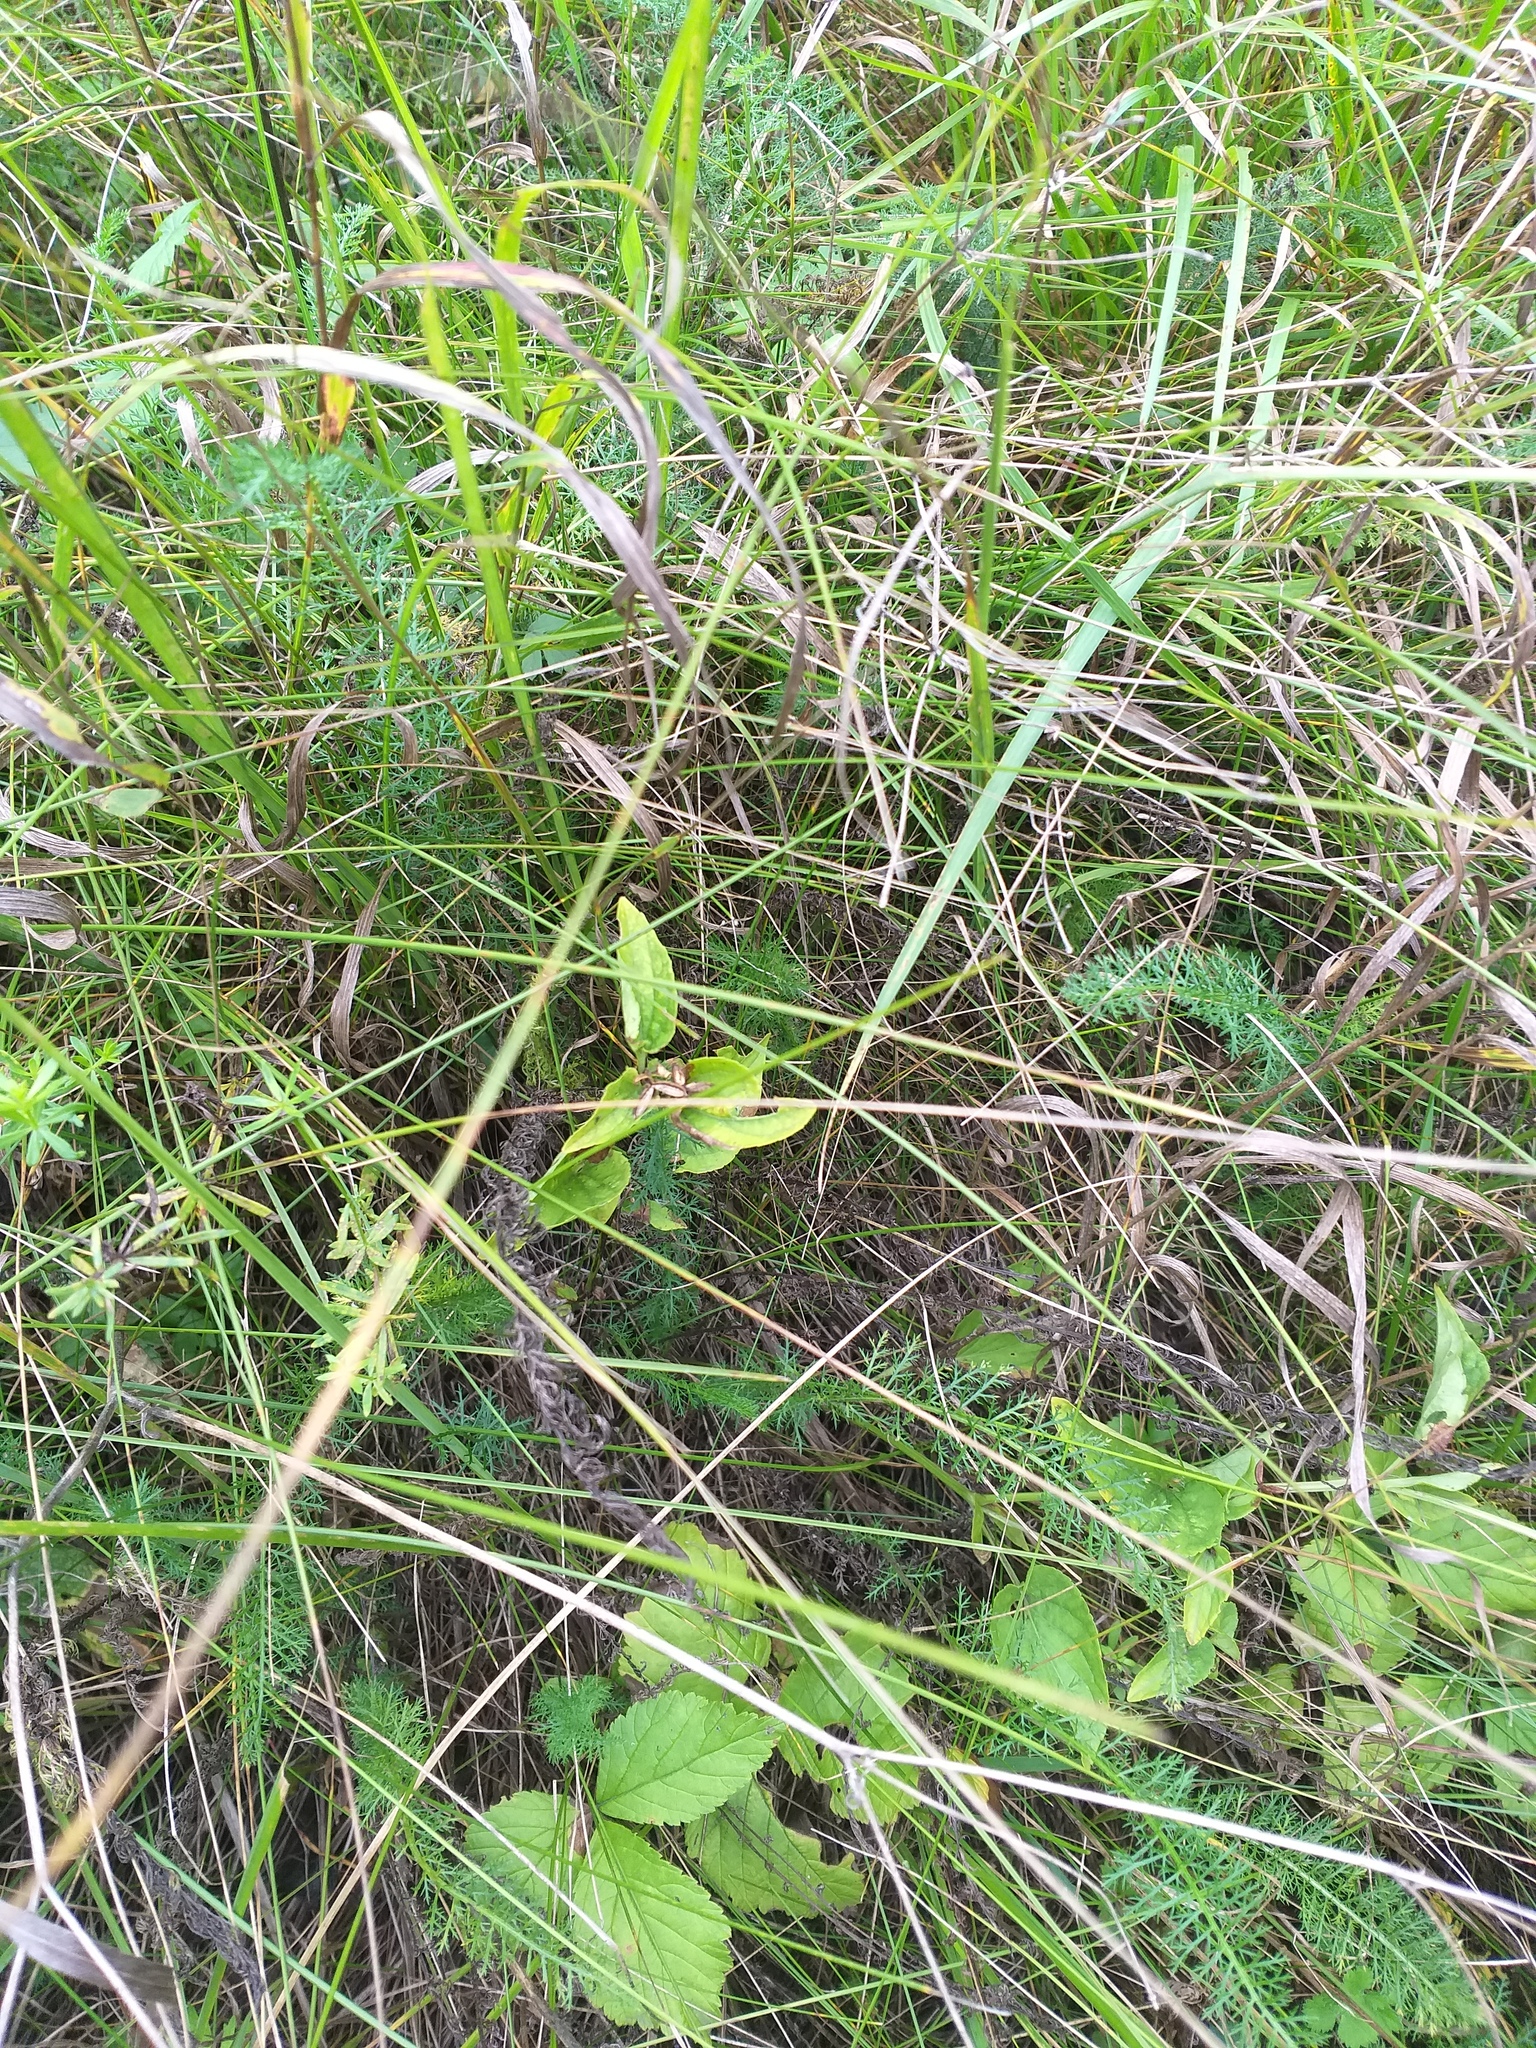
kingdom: Plantae
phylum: Tracheophyta
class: Magnoliopsida
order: Malpighiales
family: Violaceae
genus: Viola
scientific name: Viola
